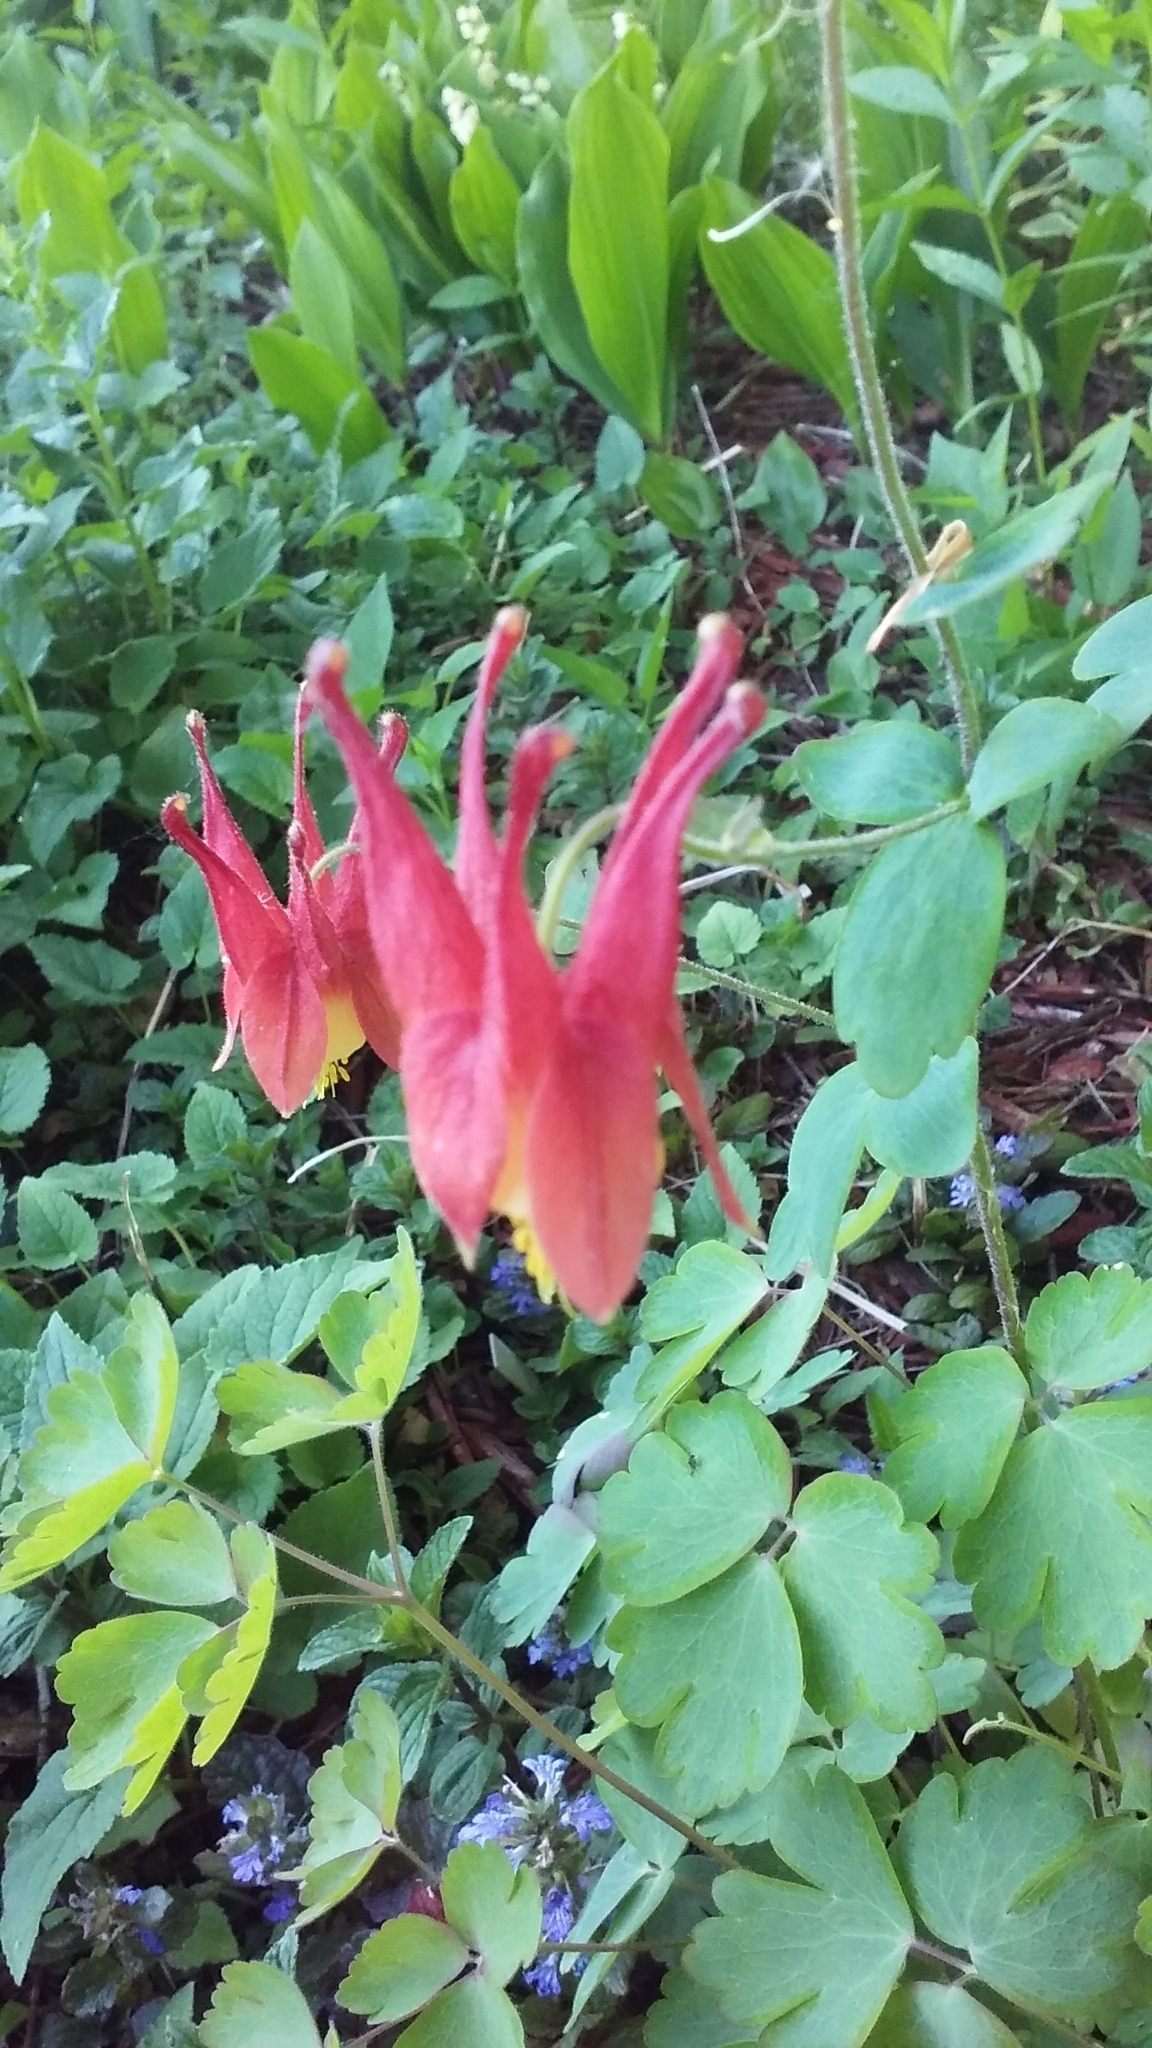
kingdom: Plantae
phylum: Tracheophyta
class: Magnoliopsida
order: Ranunculales
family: Ranunculaceae
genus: Aquilegia
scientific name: Aquilegia canadensis
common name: American columbine
